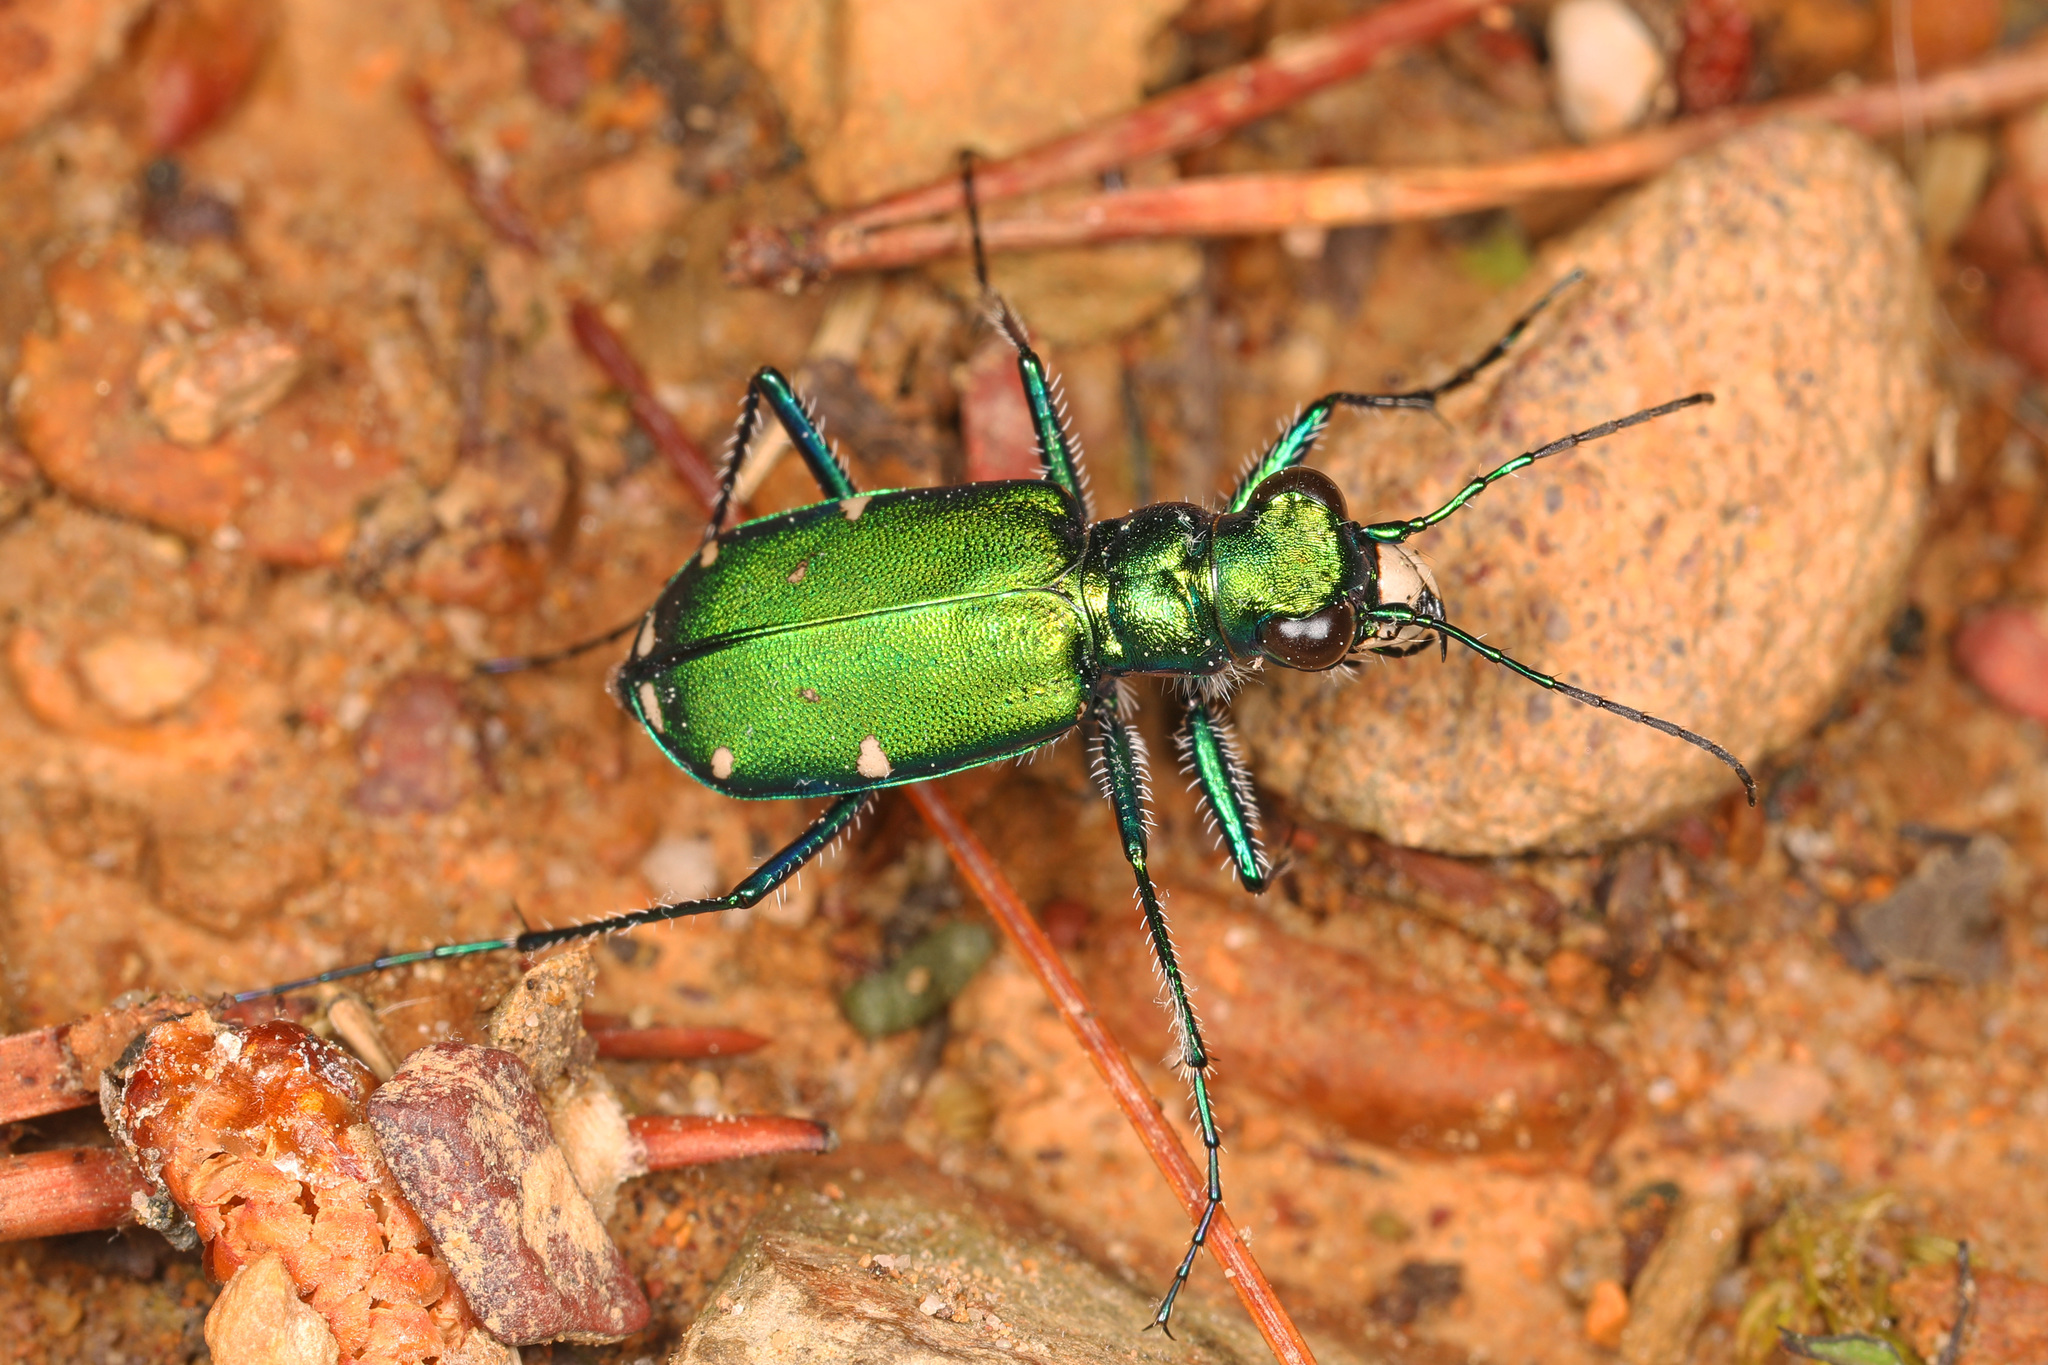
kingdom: Animalia
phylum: Arthropoda
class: Insecta
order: Coleoptera
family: Carabidae
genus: Cicindela
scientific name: Cicindela sexguttata
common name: Six-spotted tiger beetle
